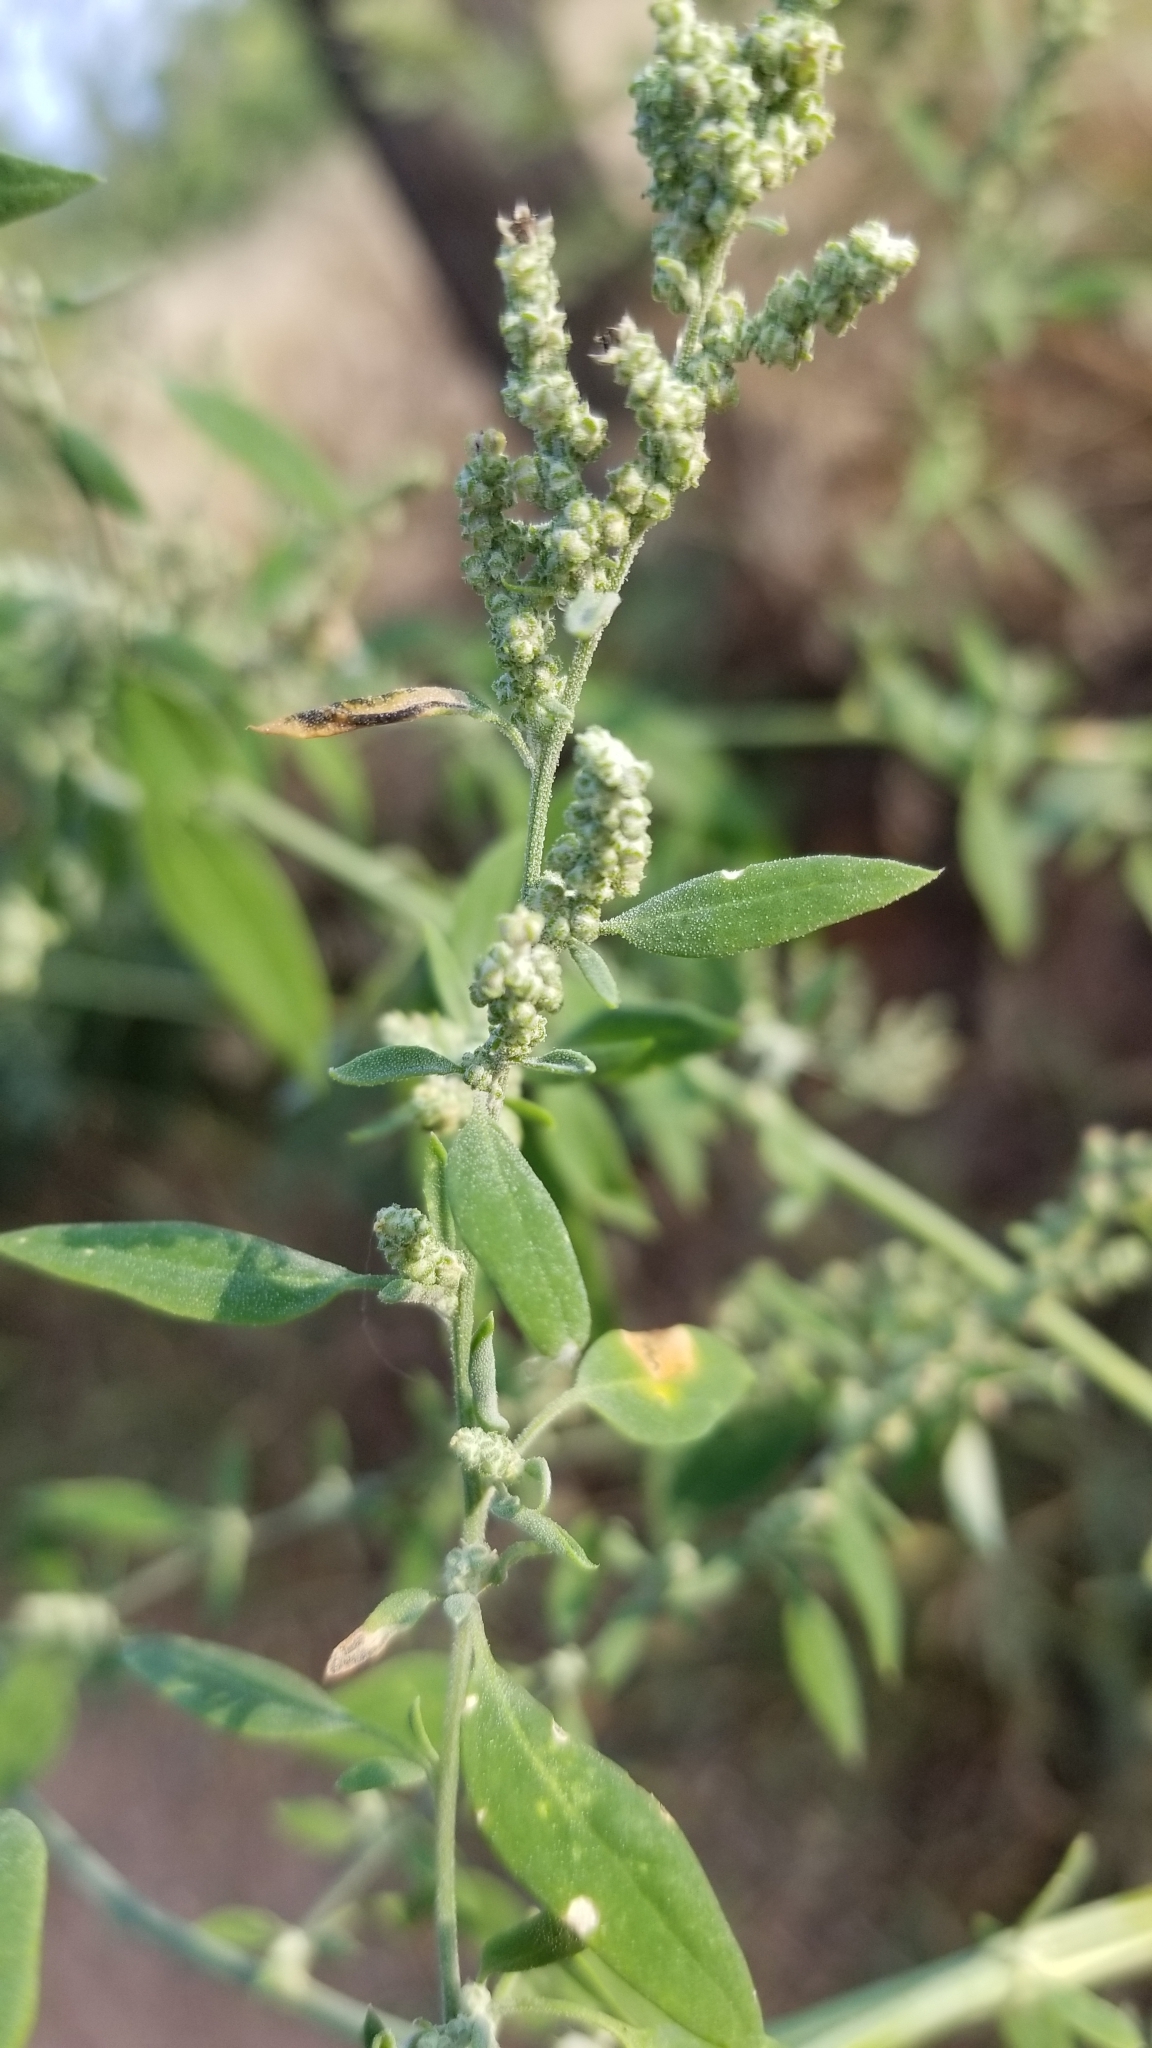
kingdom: Plantae
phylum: Tracheophyta
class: Magnoliopsida
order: Caryophyllales
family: Amaranthaceae
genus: Chenopodium
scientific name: Chenopodium album
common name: Fat-hen
